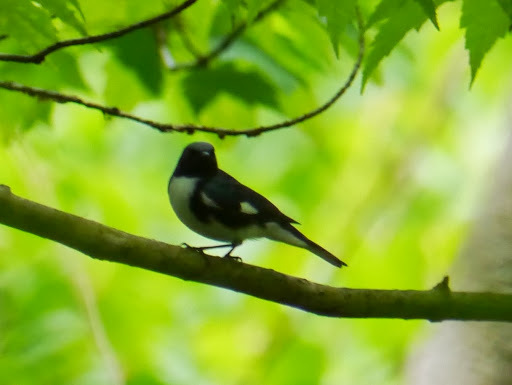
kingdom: Animalia
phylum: Chordata
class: Aves
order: Passeriformes
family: Parulidae
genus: Setophaga
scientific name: Setophaga caerulescens
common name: Black-throated blue warbler
